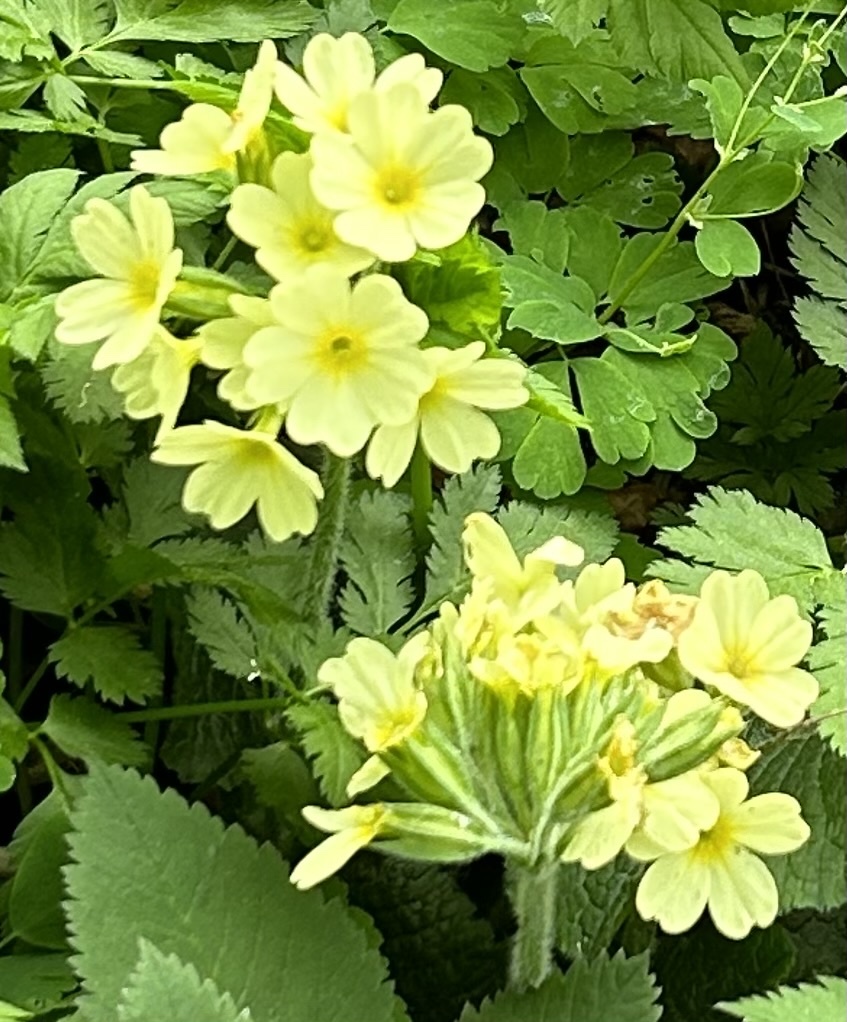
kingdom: Plantae
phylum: Tracheophyta
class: Magnoliopsida
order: Ericales
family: Primulaceae
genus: Primula
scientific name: Primula elatior
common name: Oxlip
